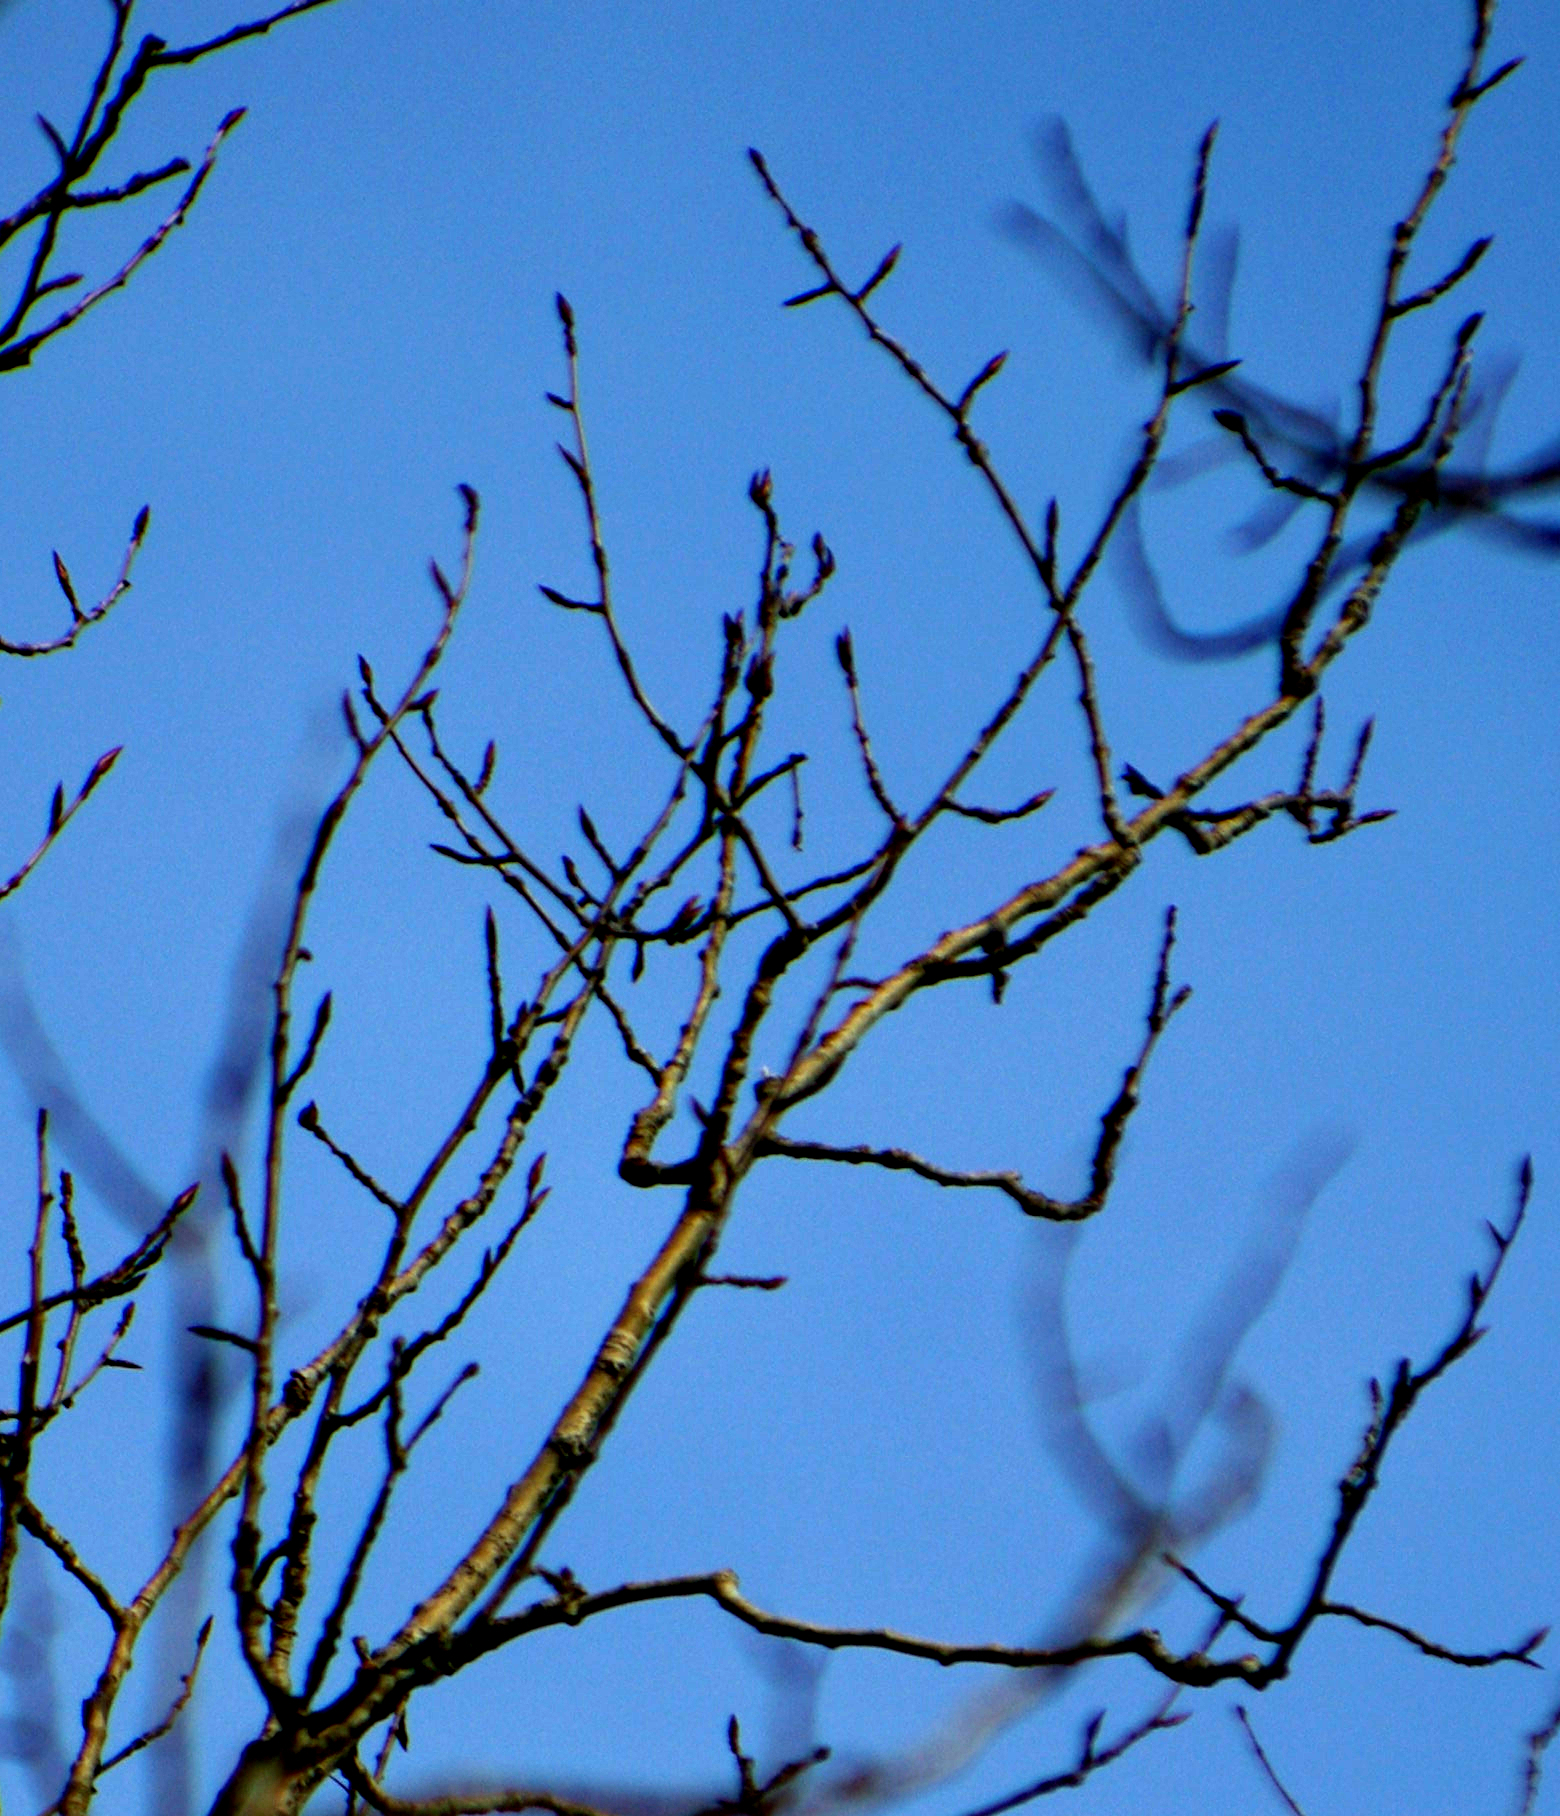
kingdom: Plantae
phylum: Tracheophyta
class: Magnoliopsida
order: Malpighiales
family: Salicaceae
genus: Populus
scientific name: Populus balsamifera
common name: Balsam poplar
